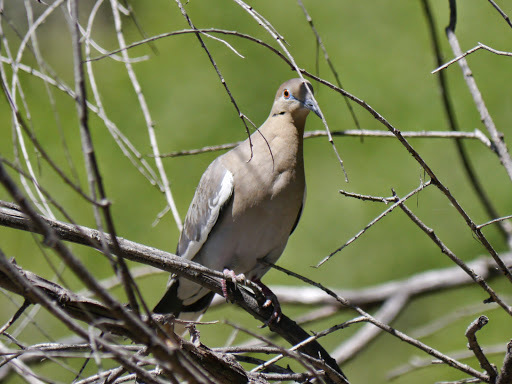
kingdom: Animalia
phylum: Chordata
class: Aves
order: Columbiformes
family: Columbidae
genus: Zenaida
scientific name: Zenaida asiatica
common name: White-winged dove
